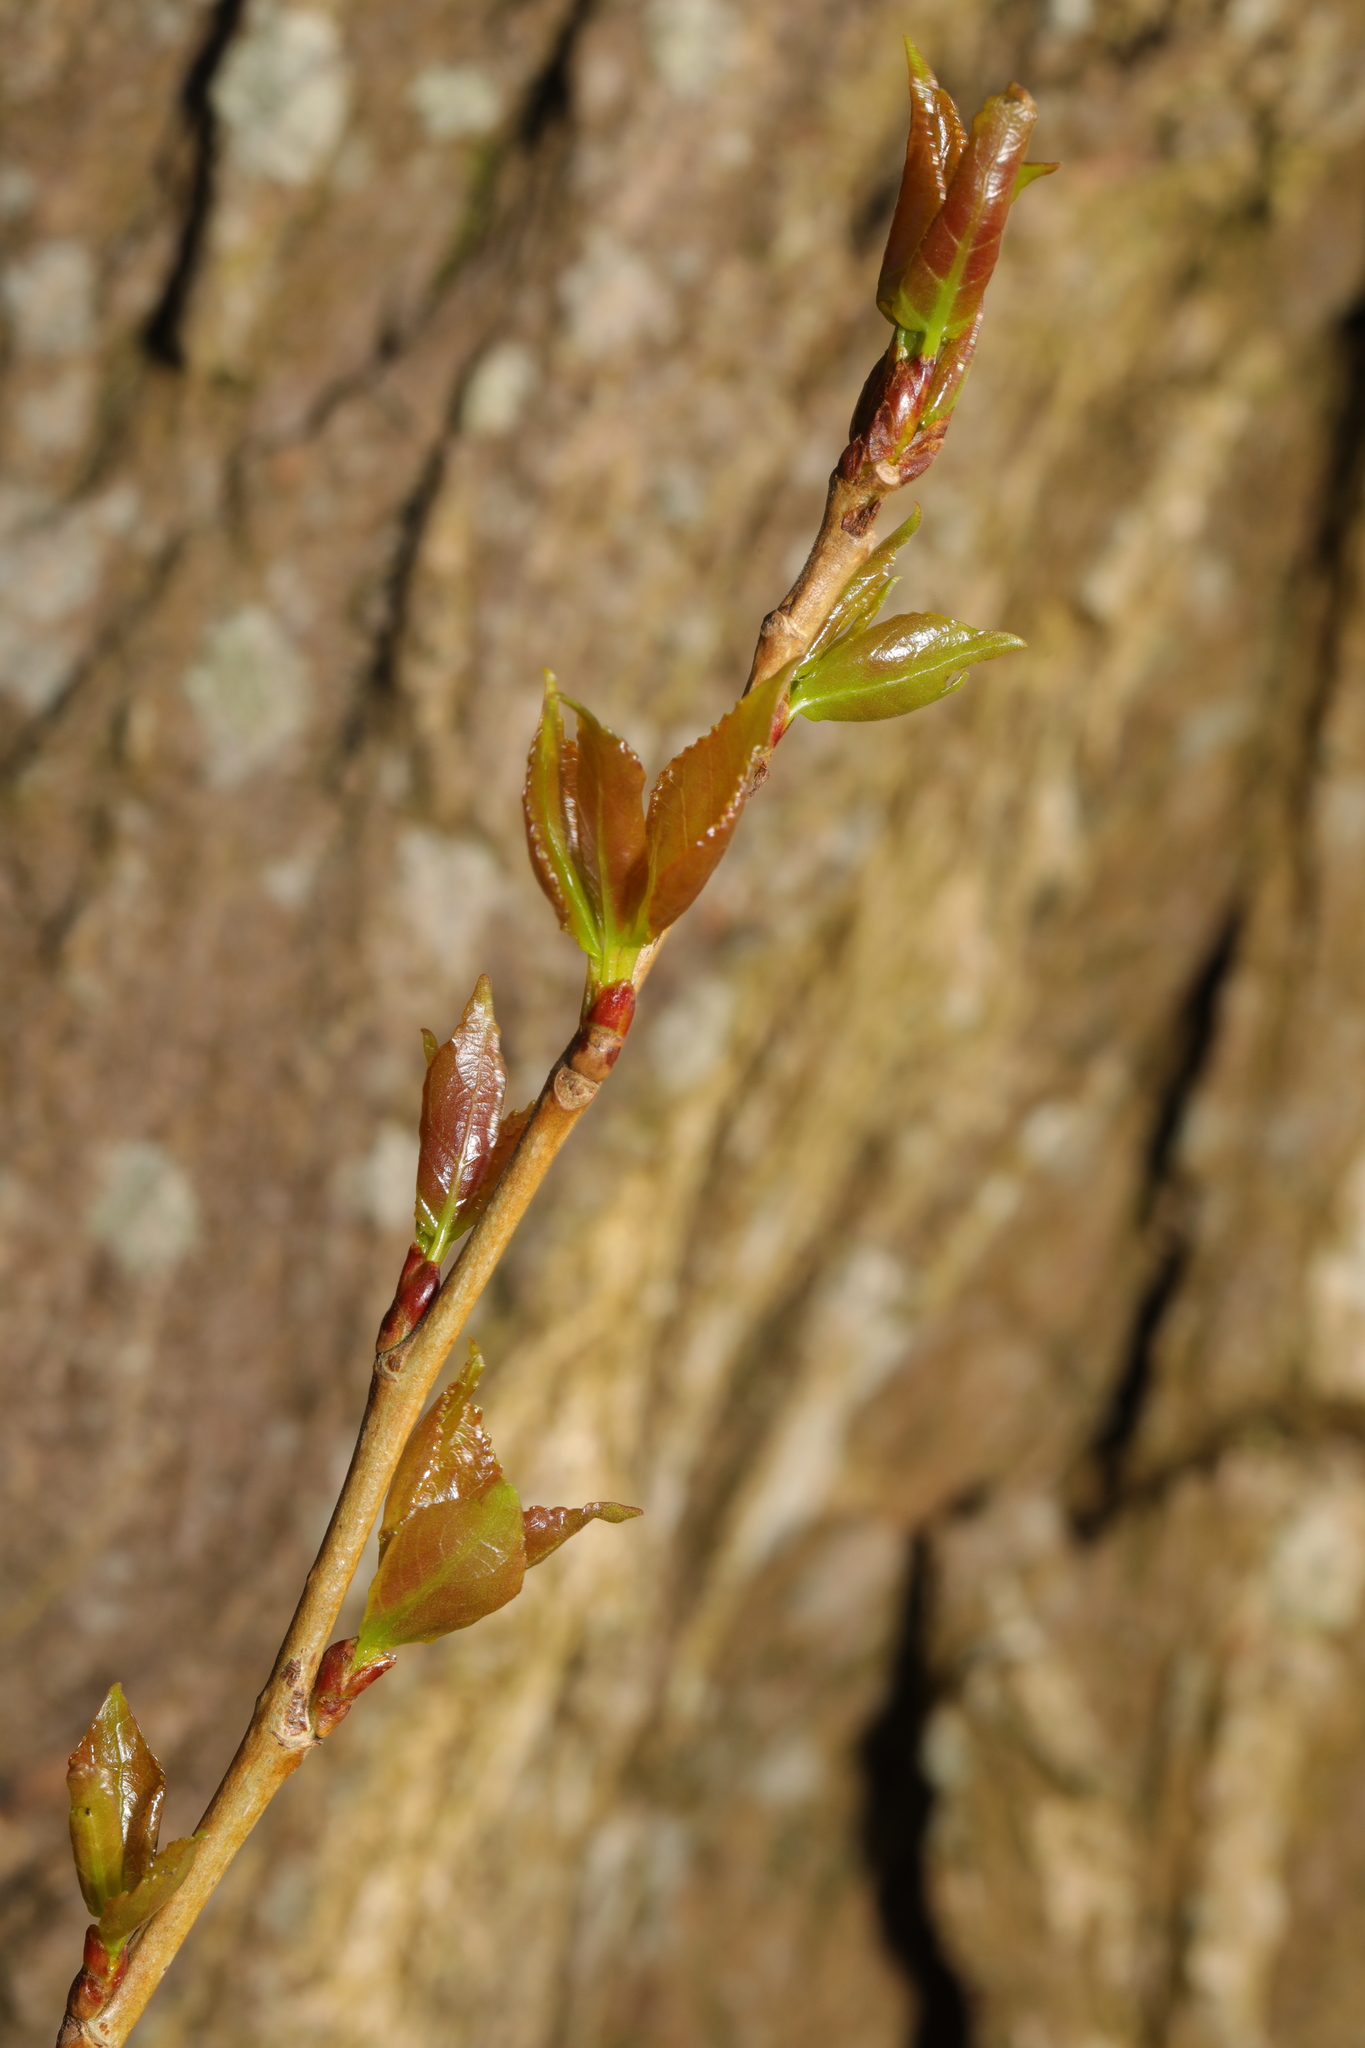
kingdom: Plantae
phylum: Tracheophyta
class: Magnoliopsida
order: Malpighiales
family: Salicaceae
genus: Populus
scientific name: Populus nigra
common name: Black poplar
